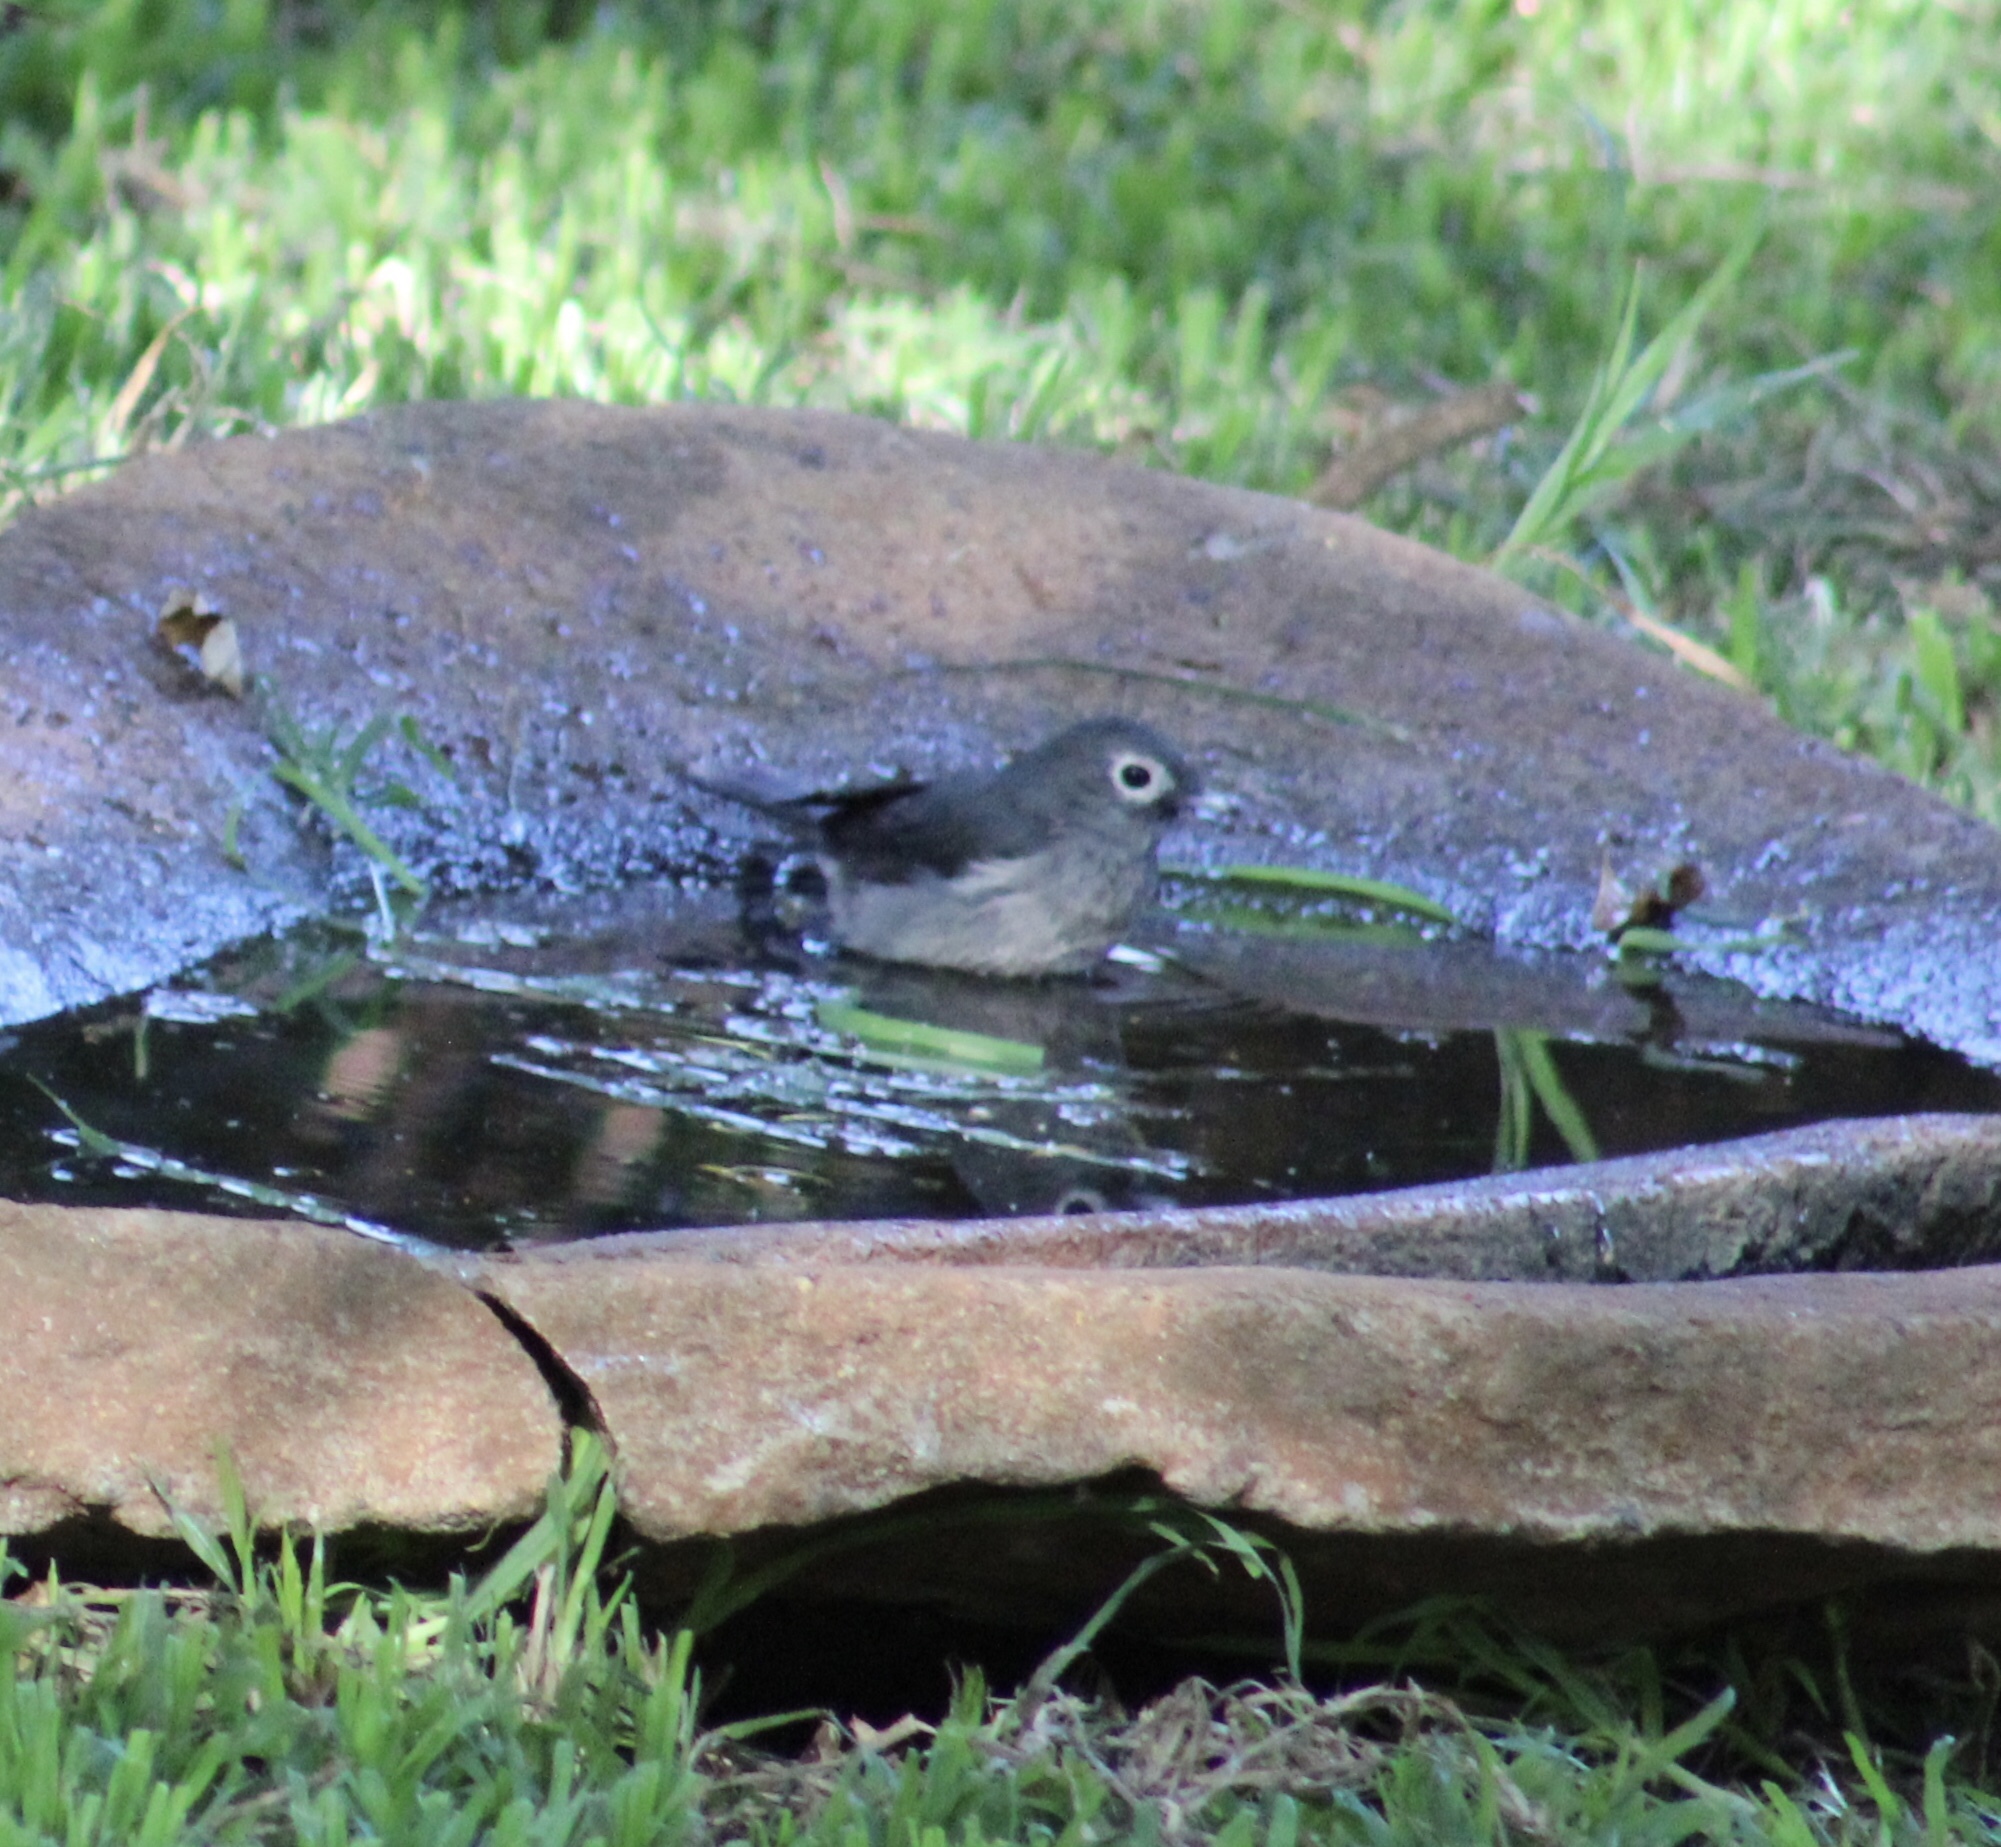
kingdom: Animalia
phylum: Chordata
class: Aves
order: Passeriformes
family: Muscicapidae
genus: Dioptrornis
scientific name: Dioptrornis fischeri
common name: White-eyed slaty flycatcher
